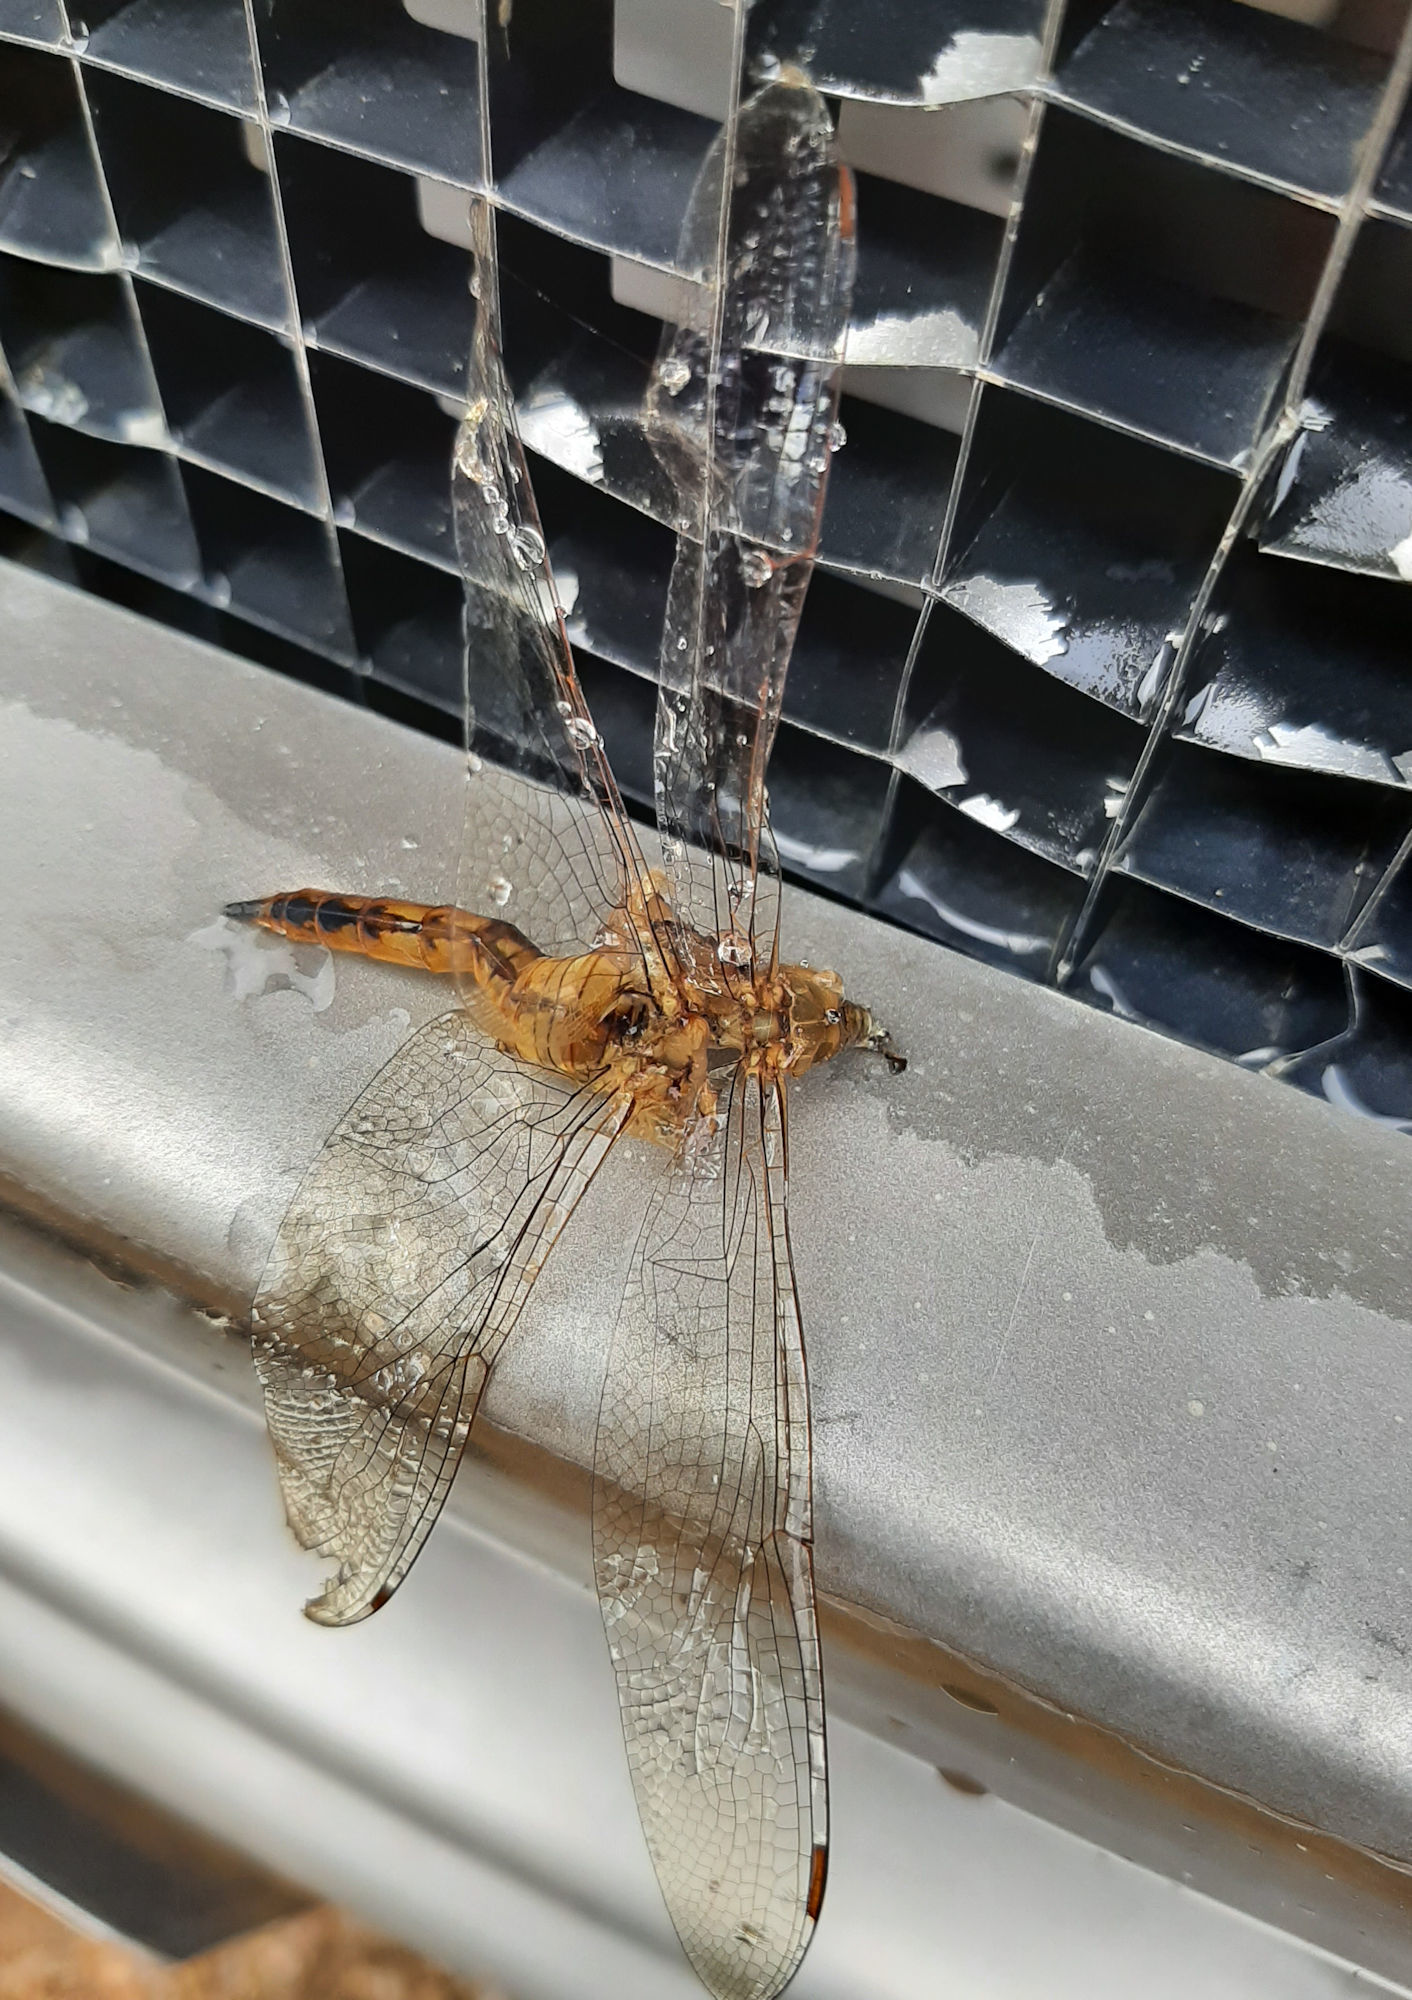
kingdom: Animalia
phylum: Arthropoda
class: Insecta
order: Odonata
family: Libellulidae
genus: Pantala
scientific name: Pantala flavescens
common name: Wandering glider
